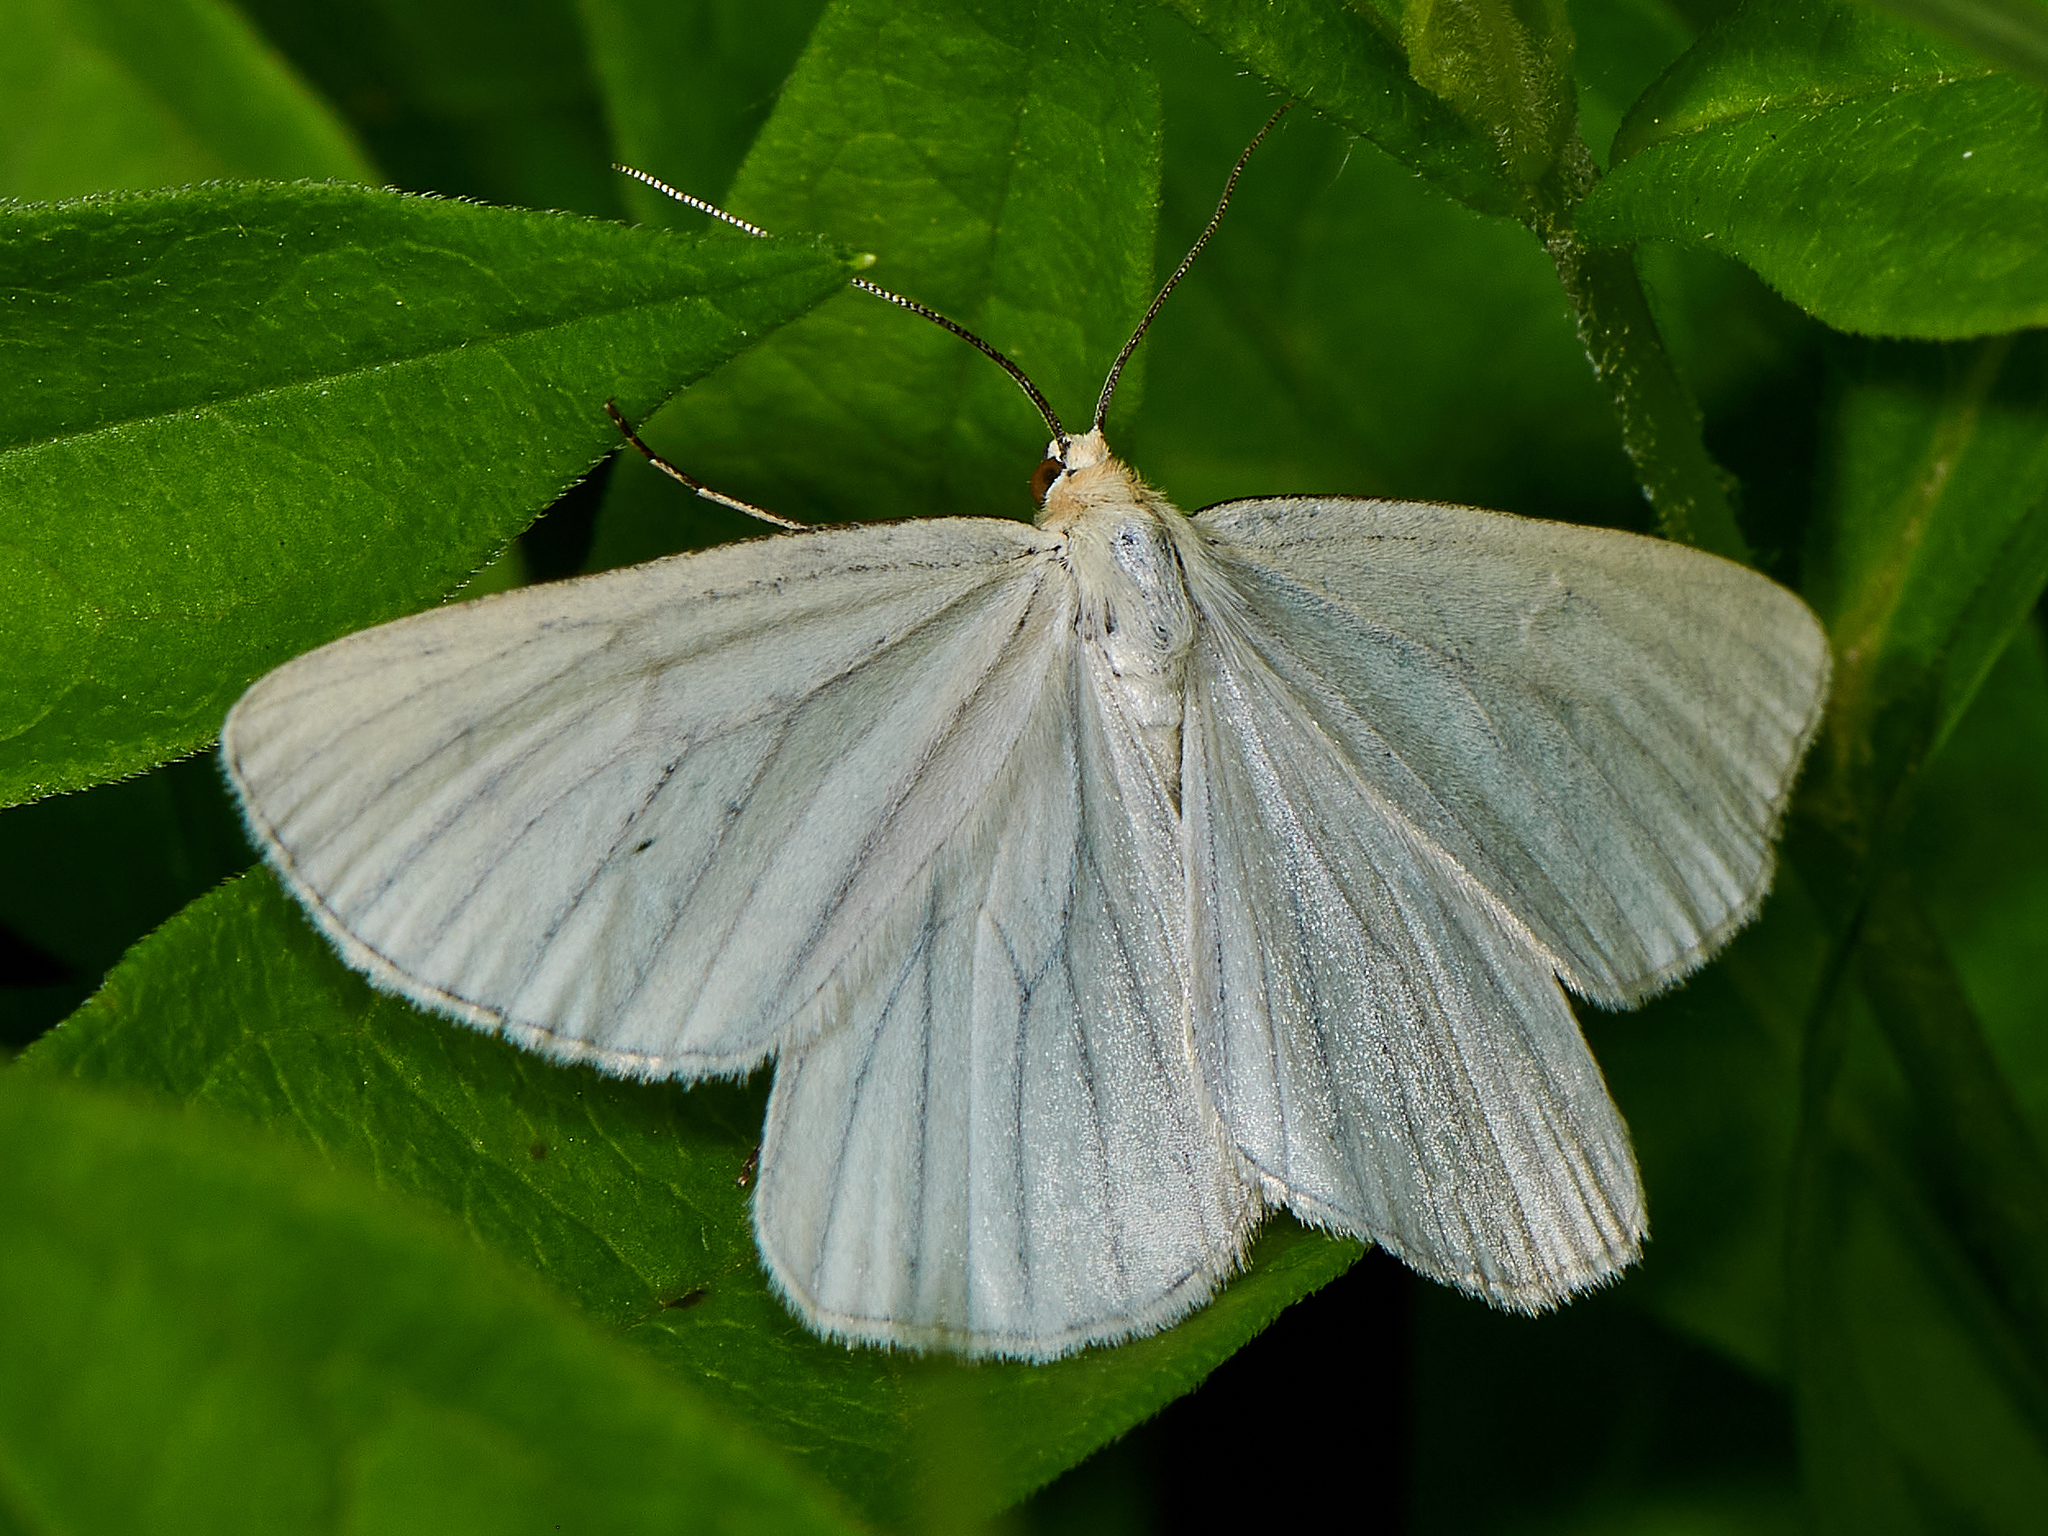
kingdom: Animalia
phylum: Arthropoda
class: Insecta
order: Lepidoptera
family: Geometridae
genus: Siona
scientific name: Siona lineata
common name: Black-veined moth
